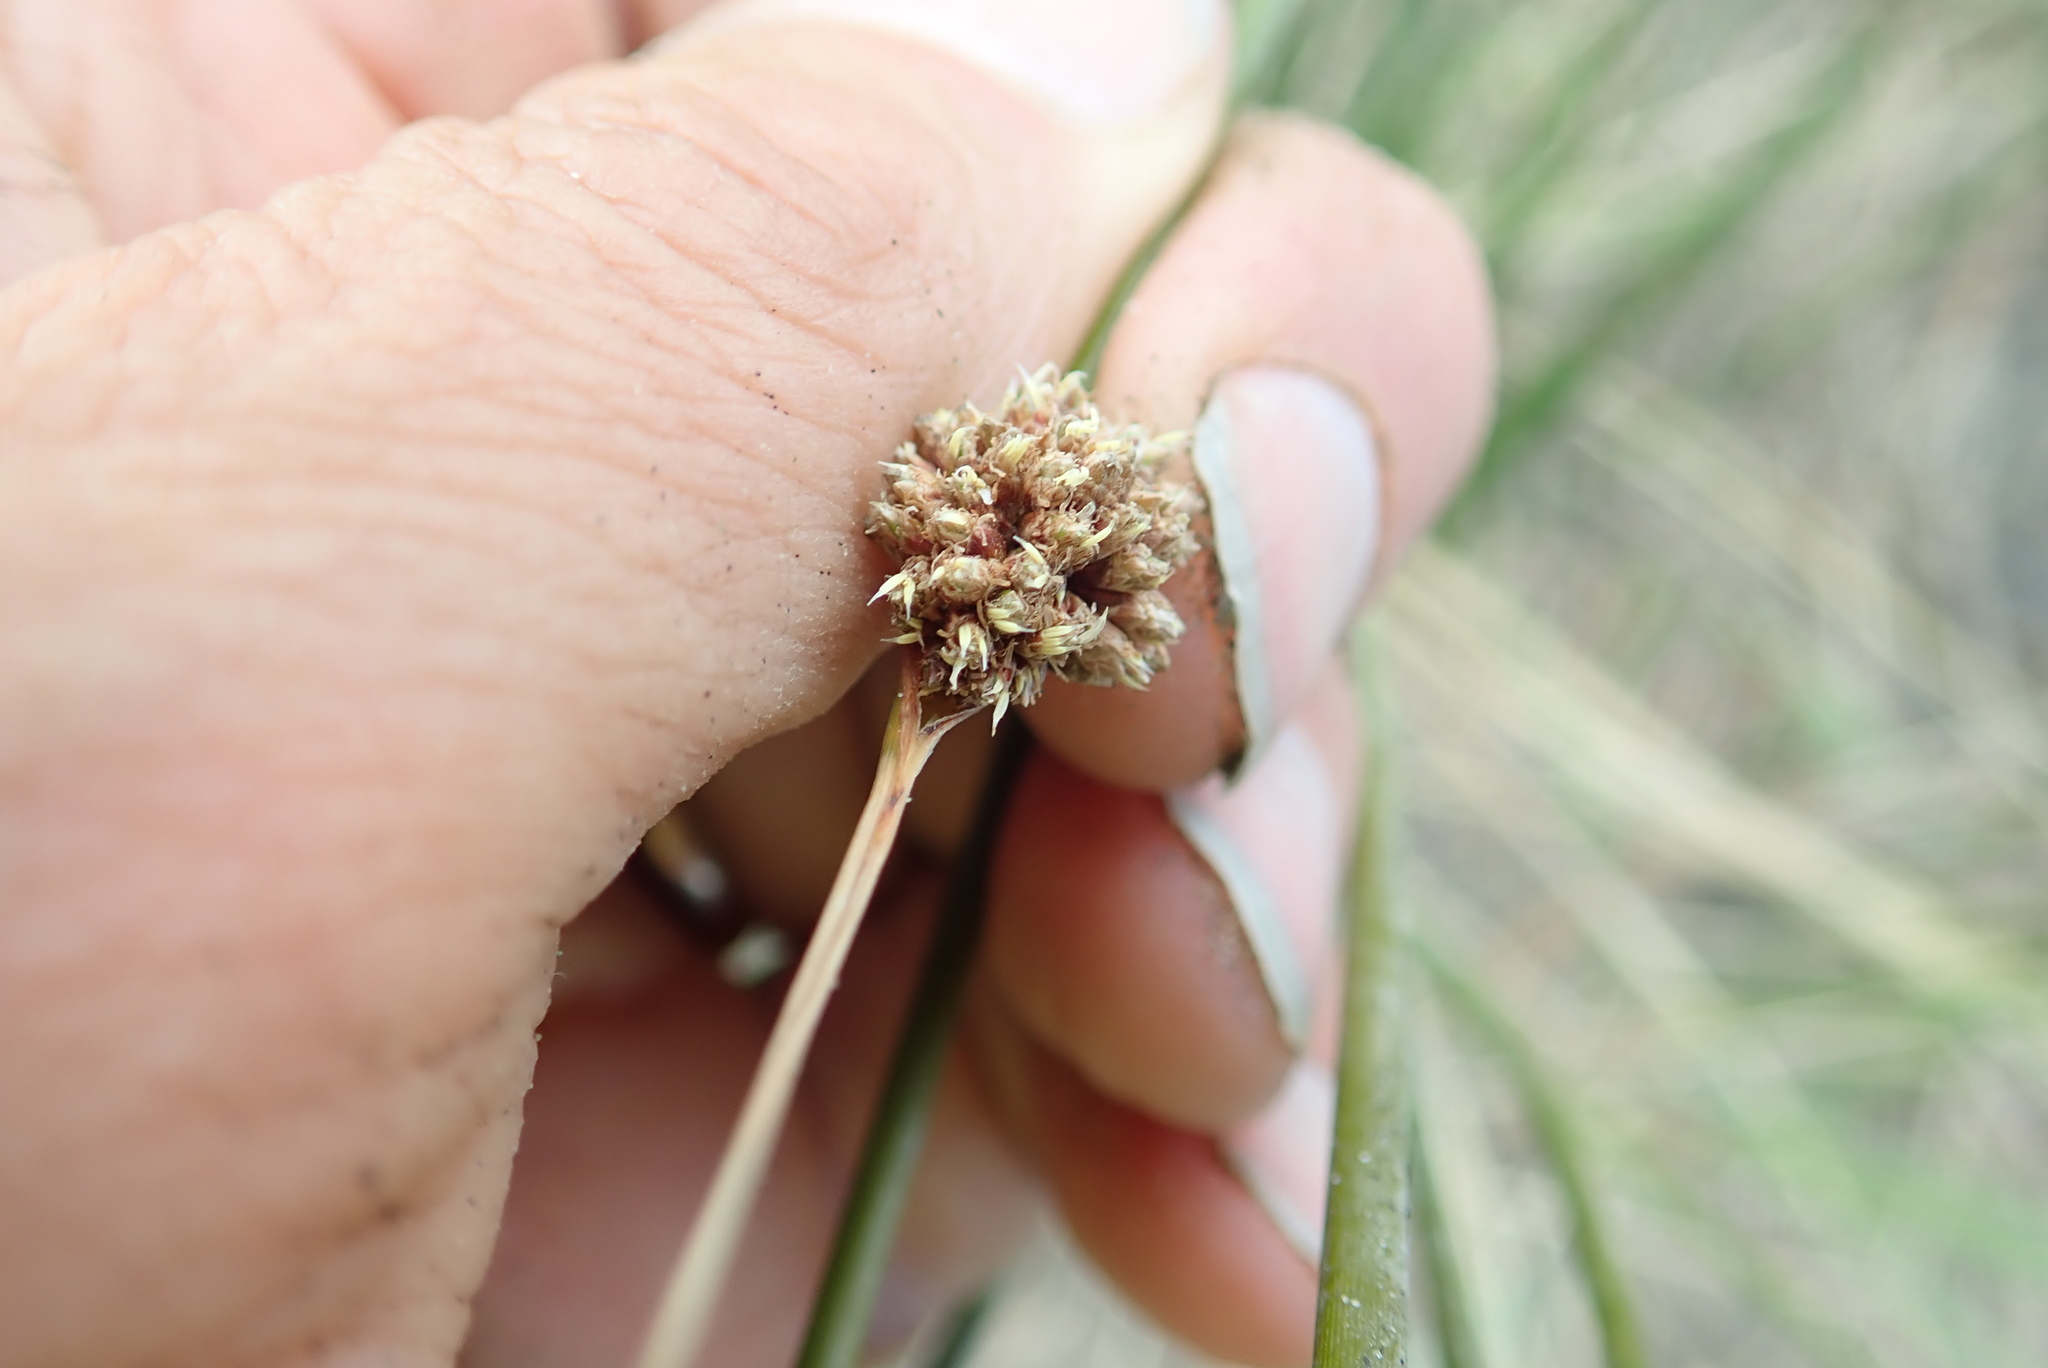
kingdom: Plantae
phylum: Tracheophyta
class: Liliopsida
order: Poales
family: Cyperaceae
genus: Ficinia
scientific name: Ficinia nodosa
